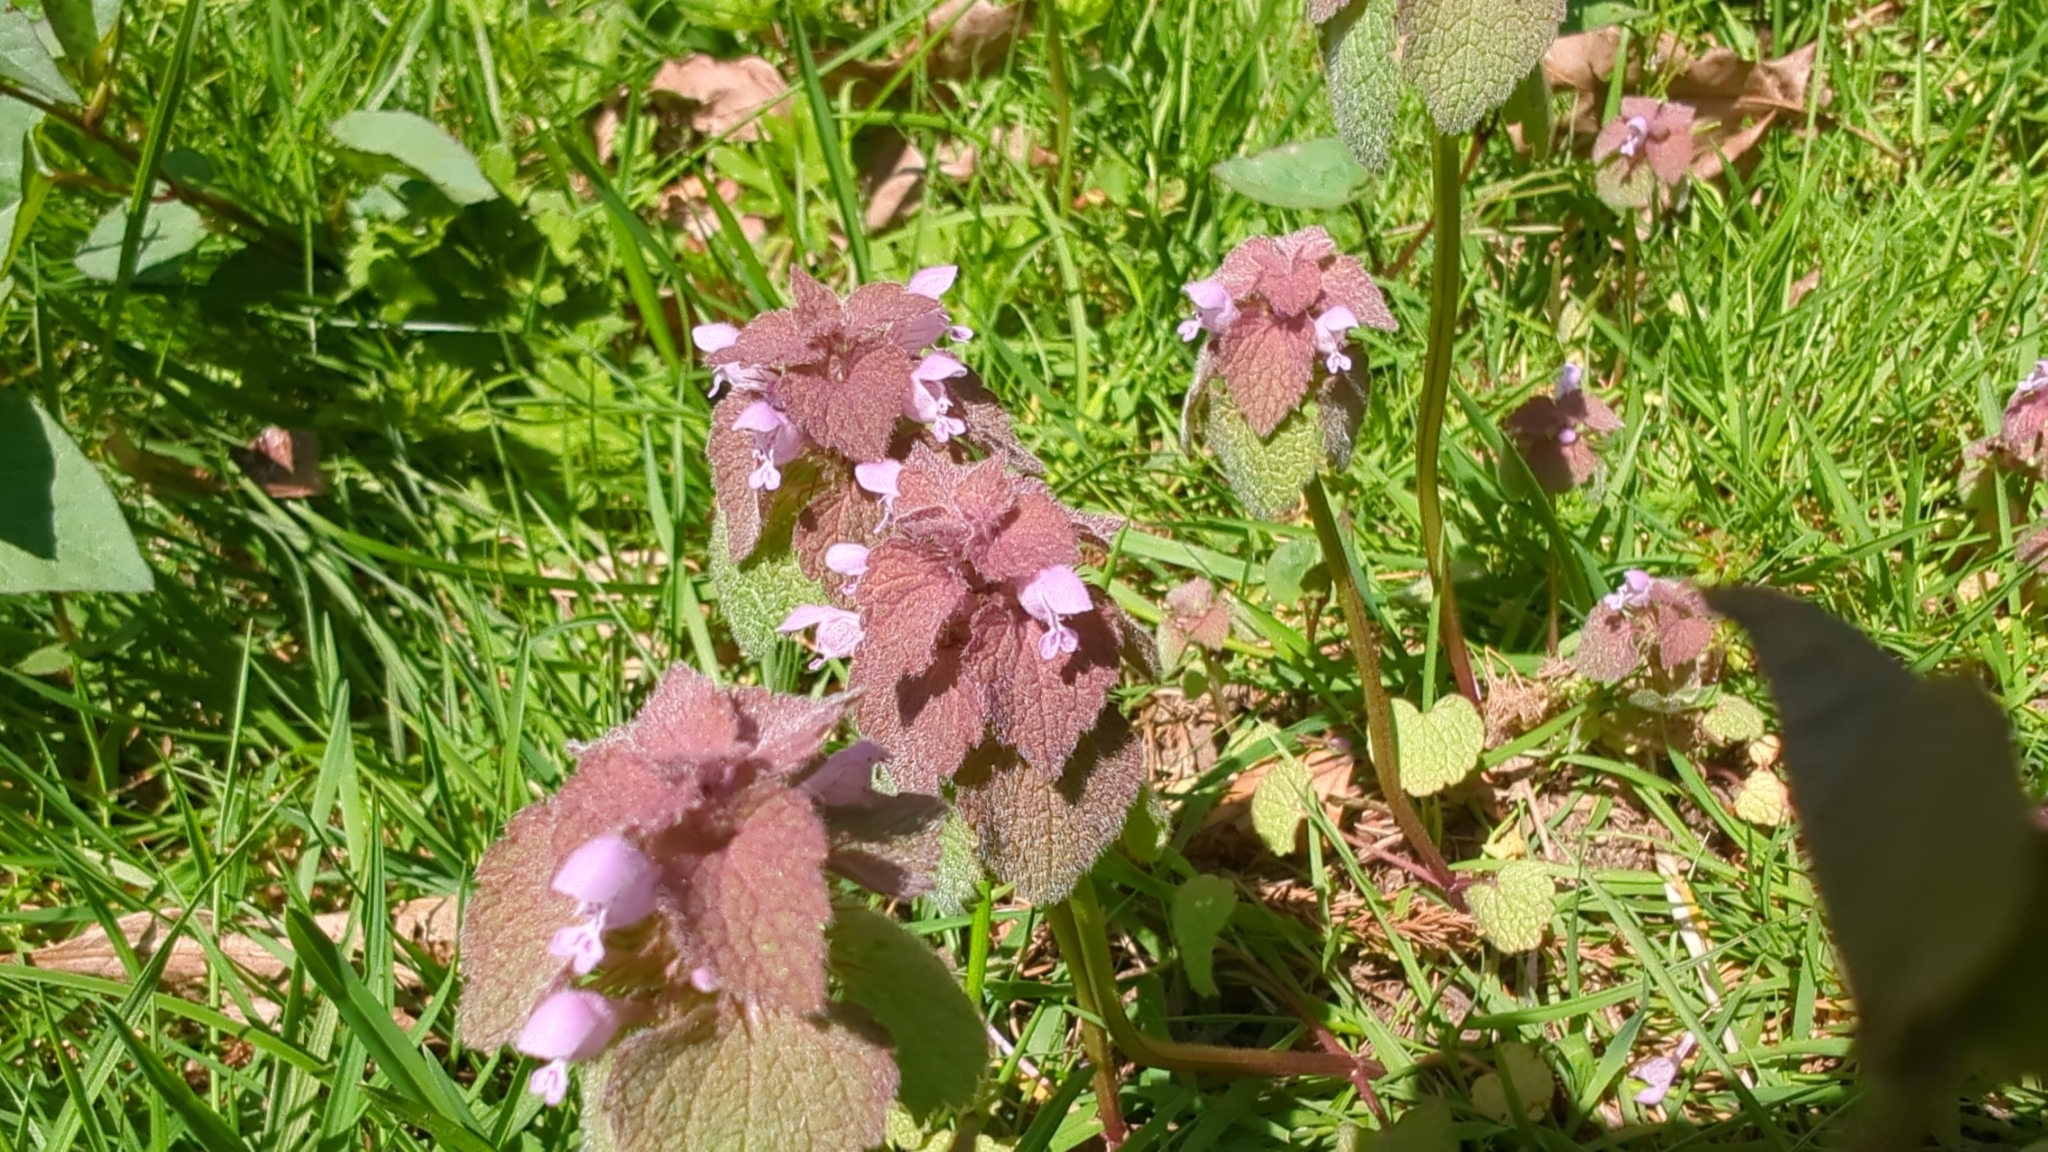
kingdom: Plantae
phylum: Tracheophyta
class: Magnoliopsida
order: Lamiales
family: Lamiaceae
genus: Lamium
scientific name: Lamium purpureum
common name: Red dead-nettle
